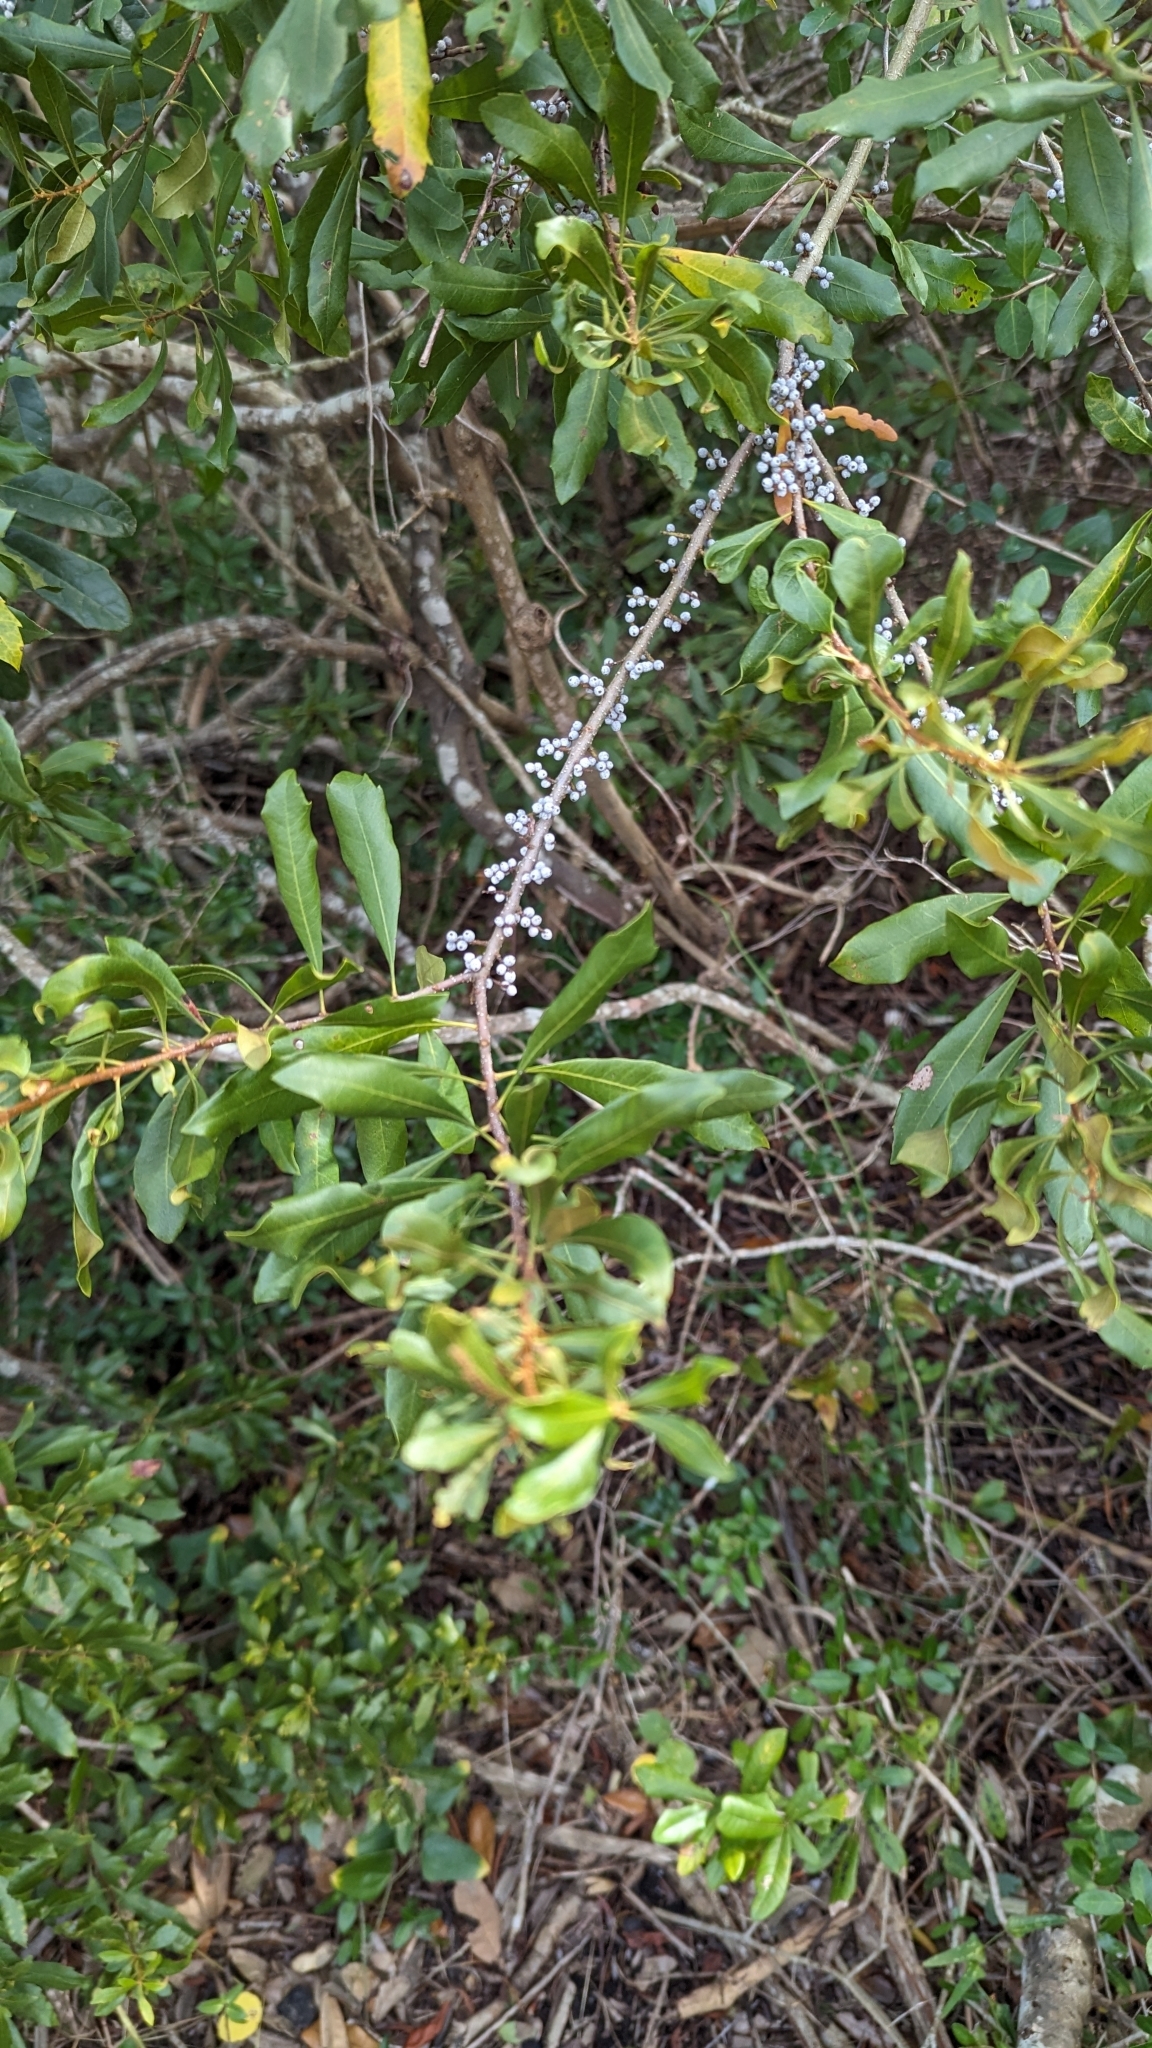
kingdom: Plantae
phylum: Tracheophyta
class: Magnoliopsida
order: Fagales
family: Myricaceae
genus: Morella
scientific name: Morella cerifera
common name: Wax myrtle
